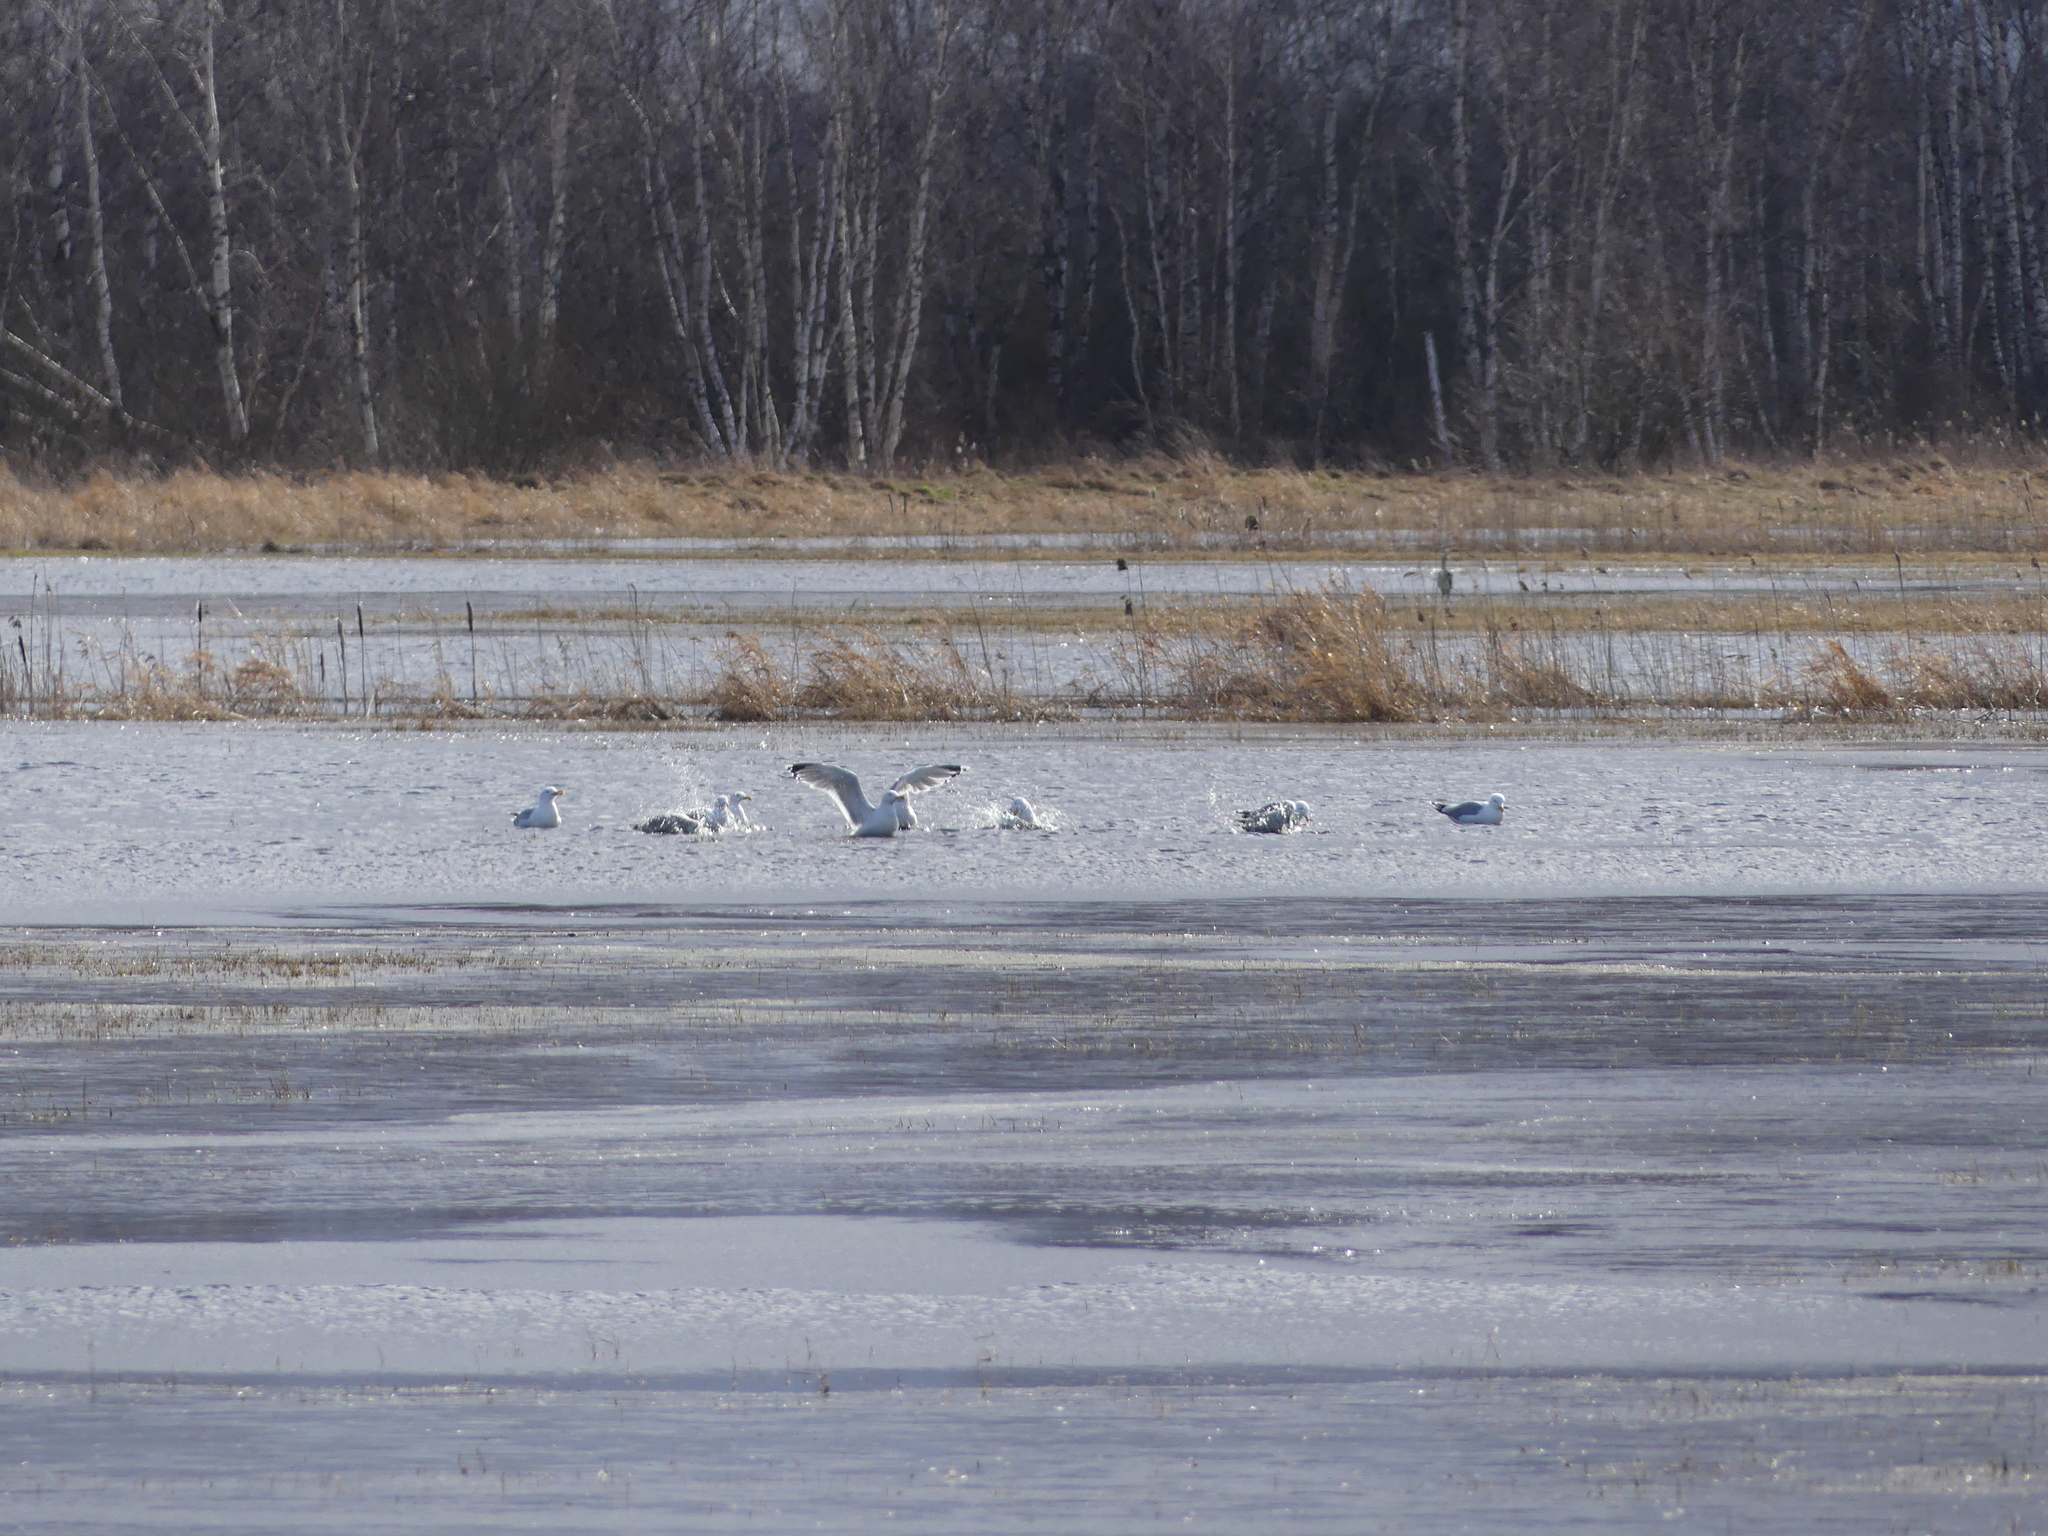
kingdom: Animalia
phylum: Chordata
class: Aves
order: Charadriiformes
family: Laridae
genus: Larus
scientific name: Larus argentatus
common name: Herring gull
